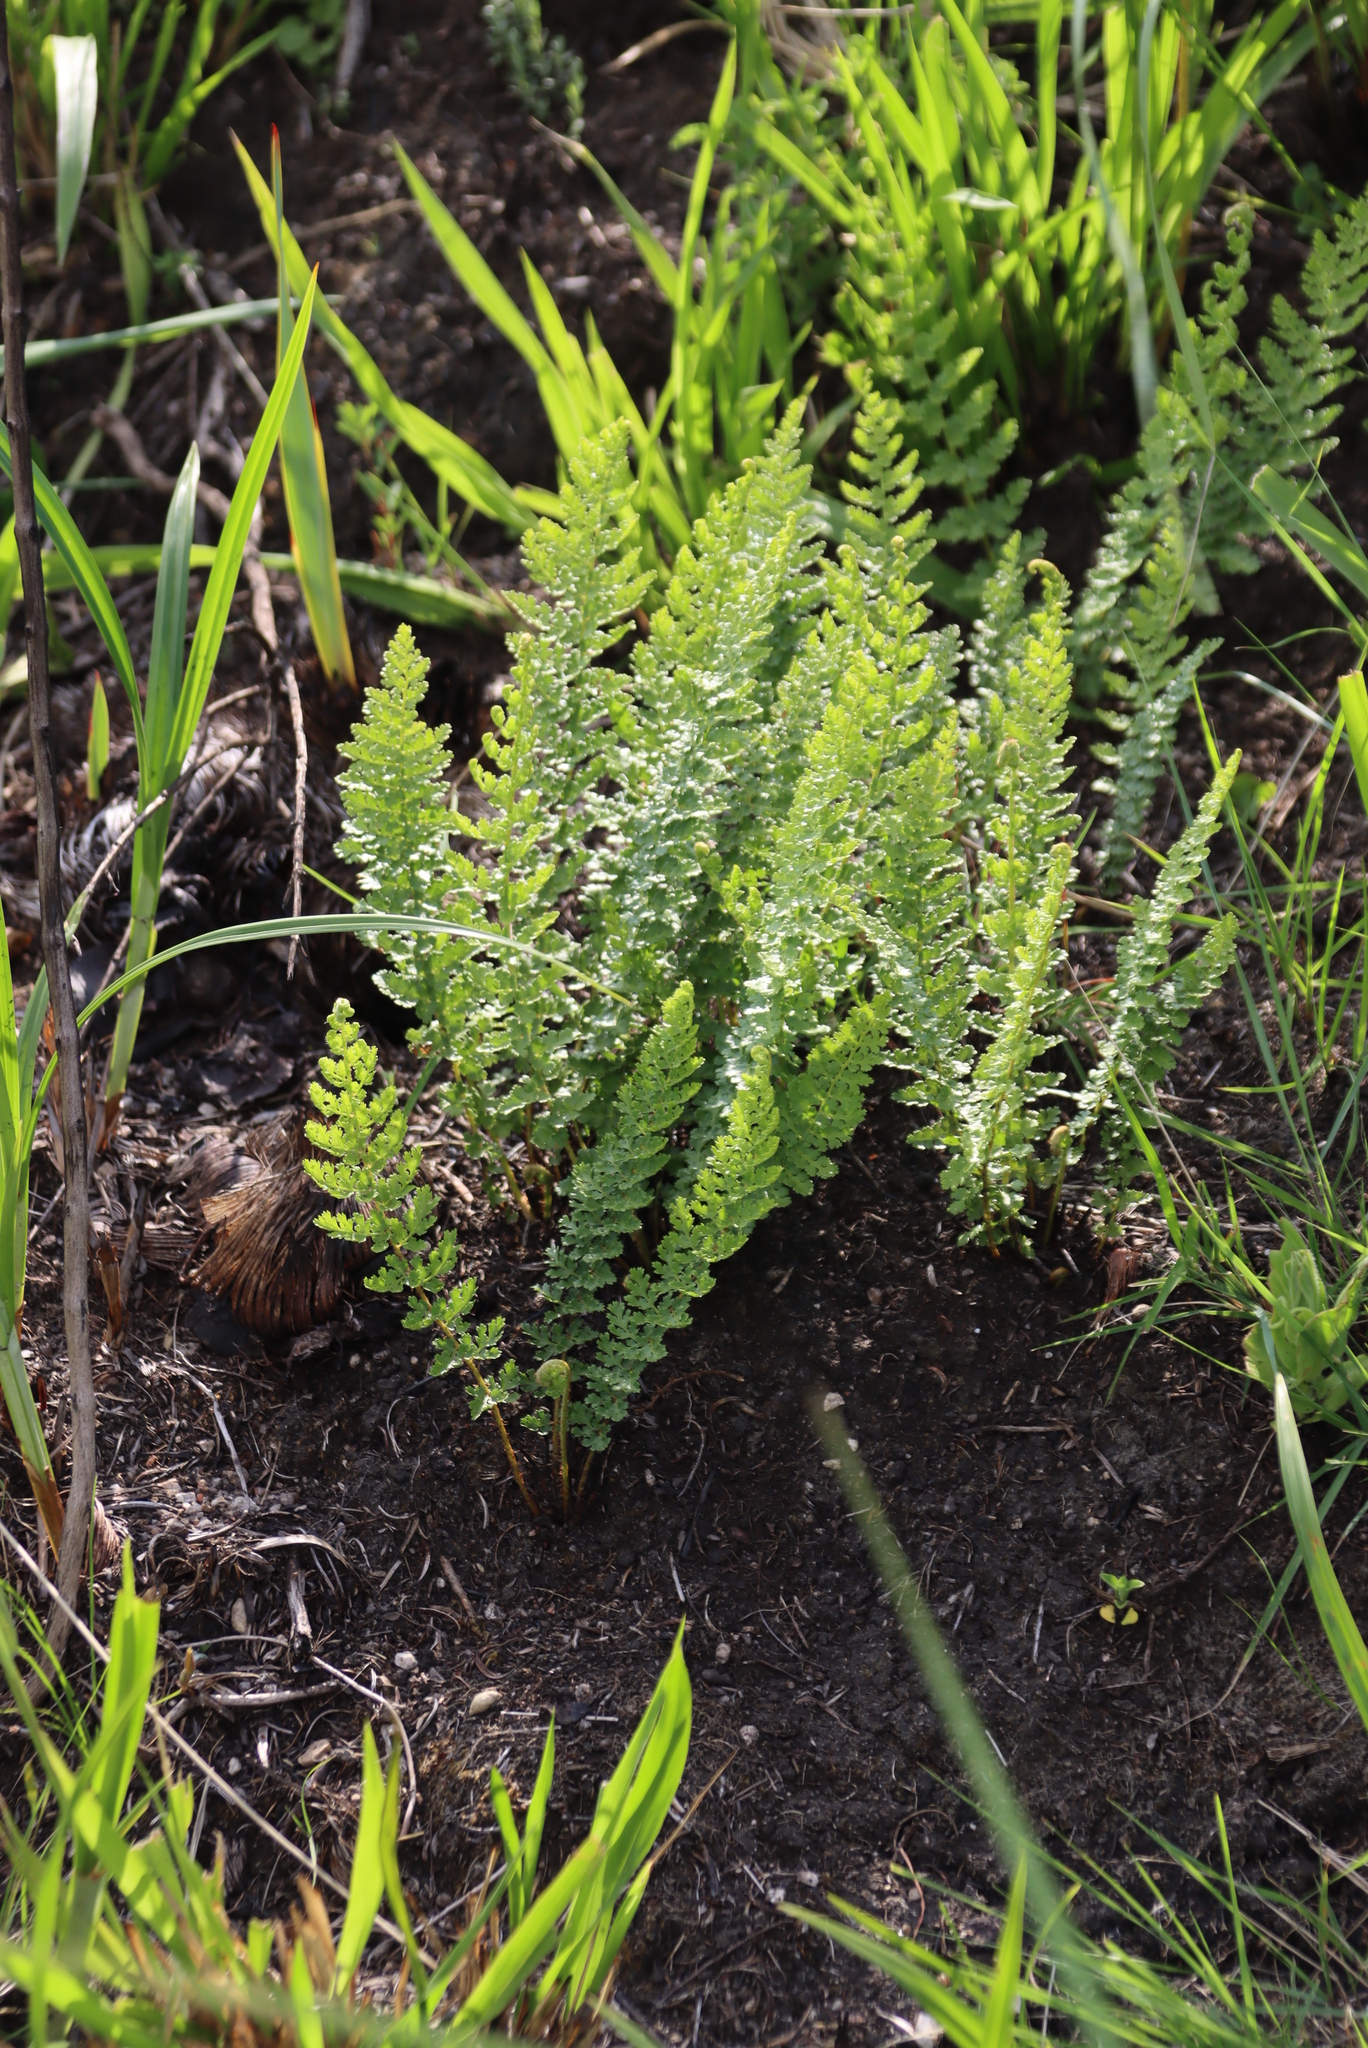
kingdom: Plantae
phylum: Tracheophyta
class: Polypodiopsida
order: Schizaeales
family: Anemiaceae
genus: Anemia
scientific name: Anemia caffrorum
